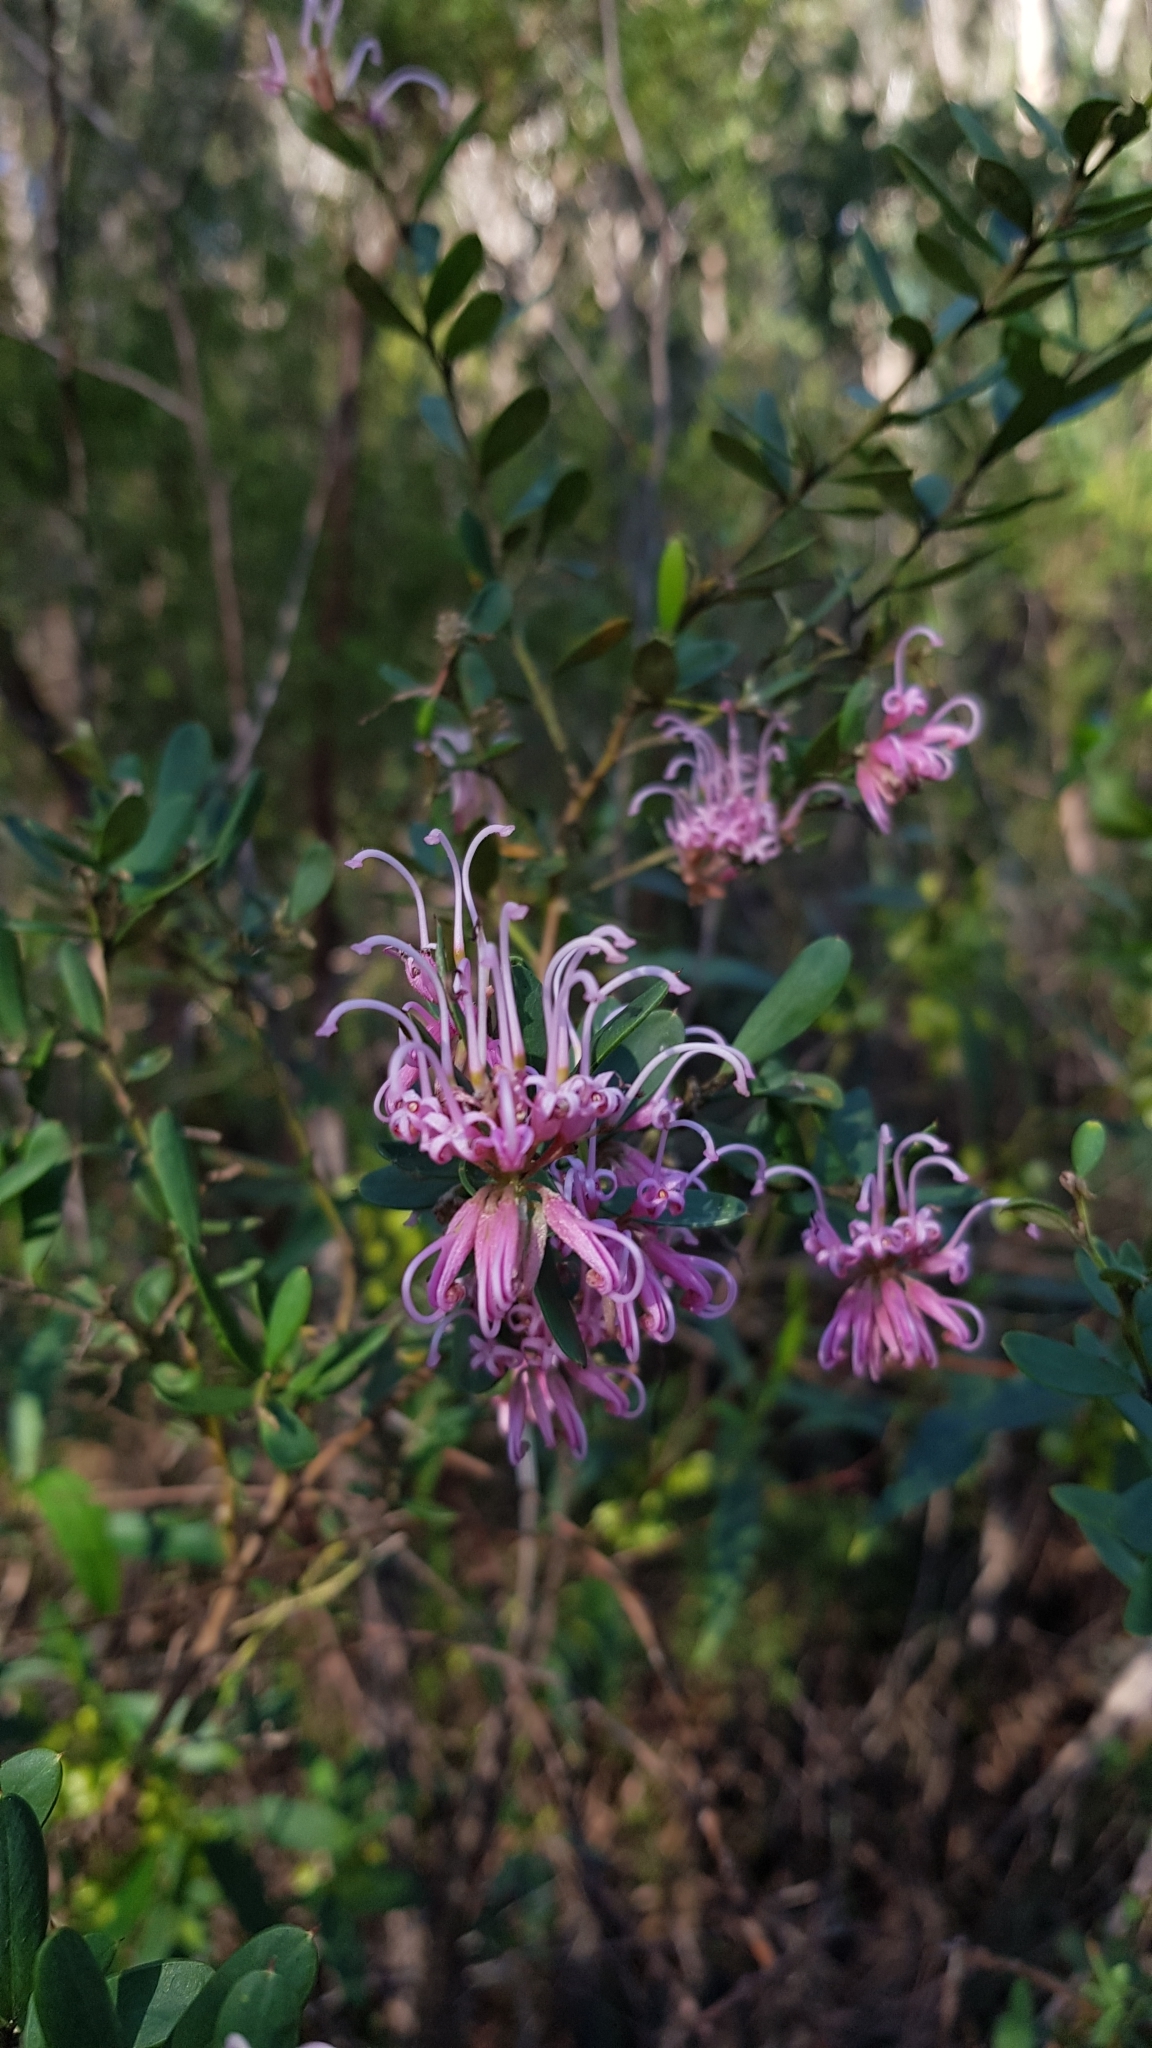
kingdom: Plantae
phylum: Tracheophyta
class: Magnoliopsida
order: Proteales
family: Proteaceae
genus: Grevillea
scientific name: Grevillea sericea
